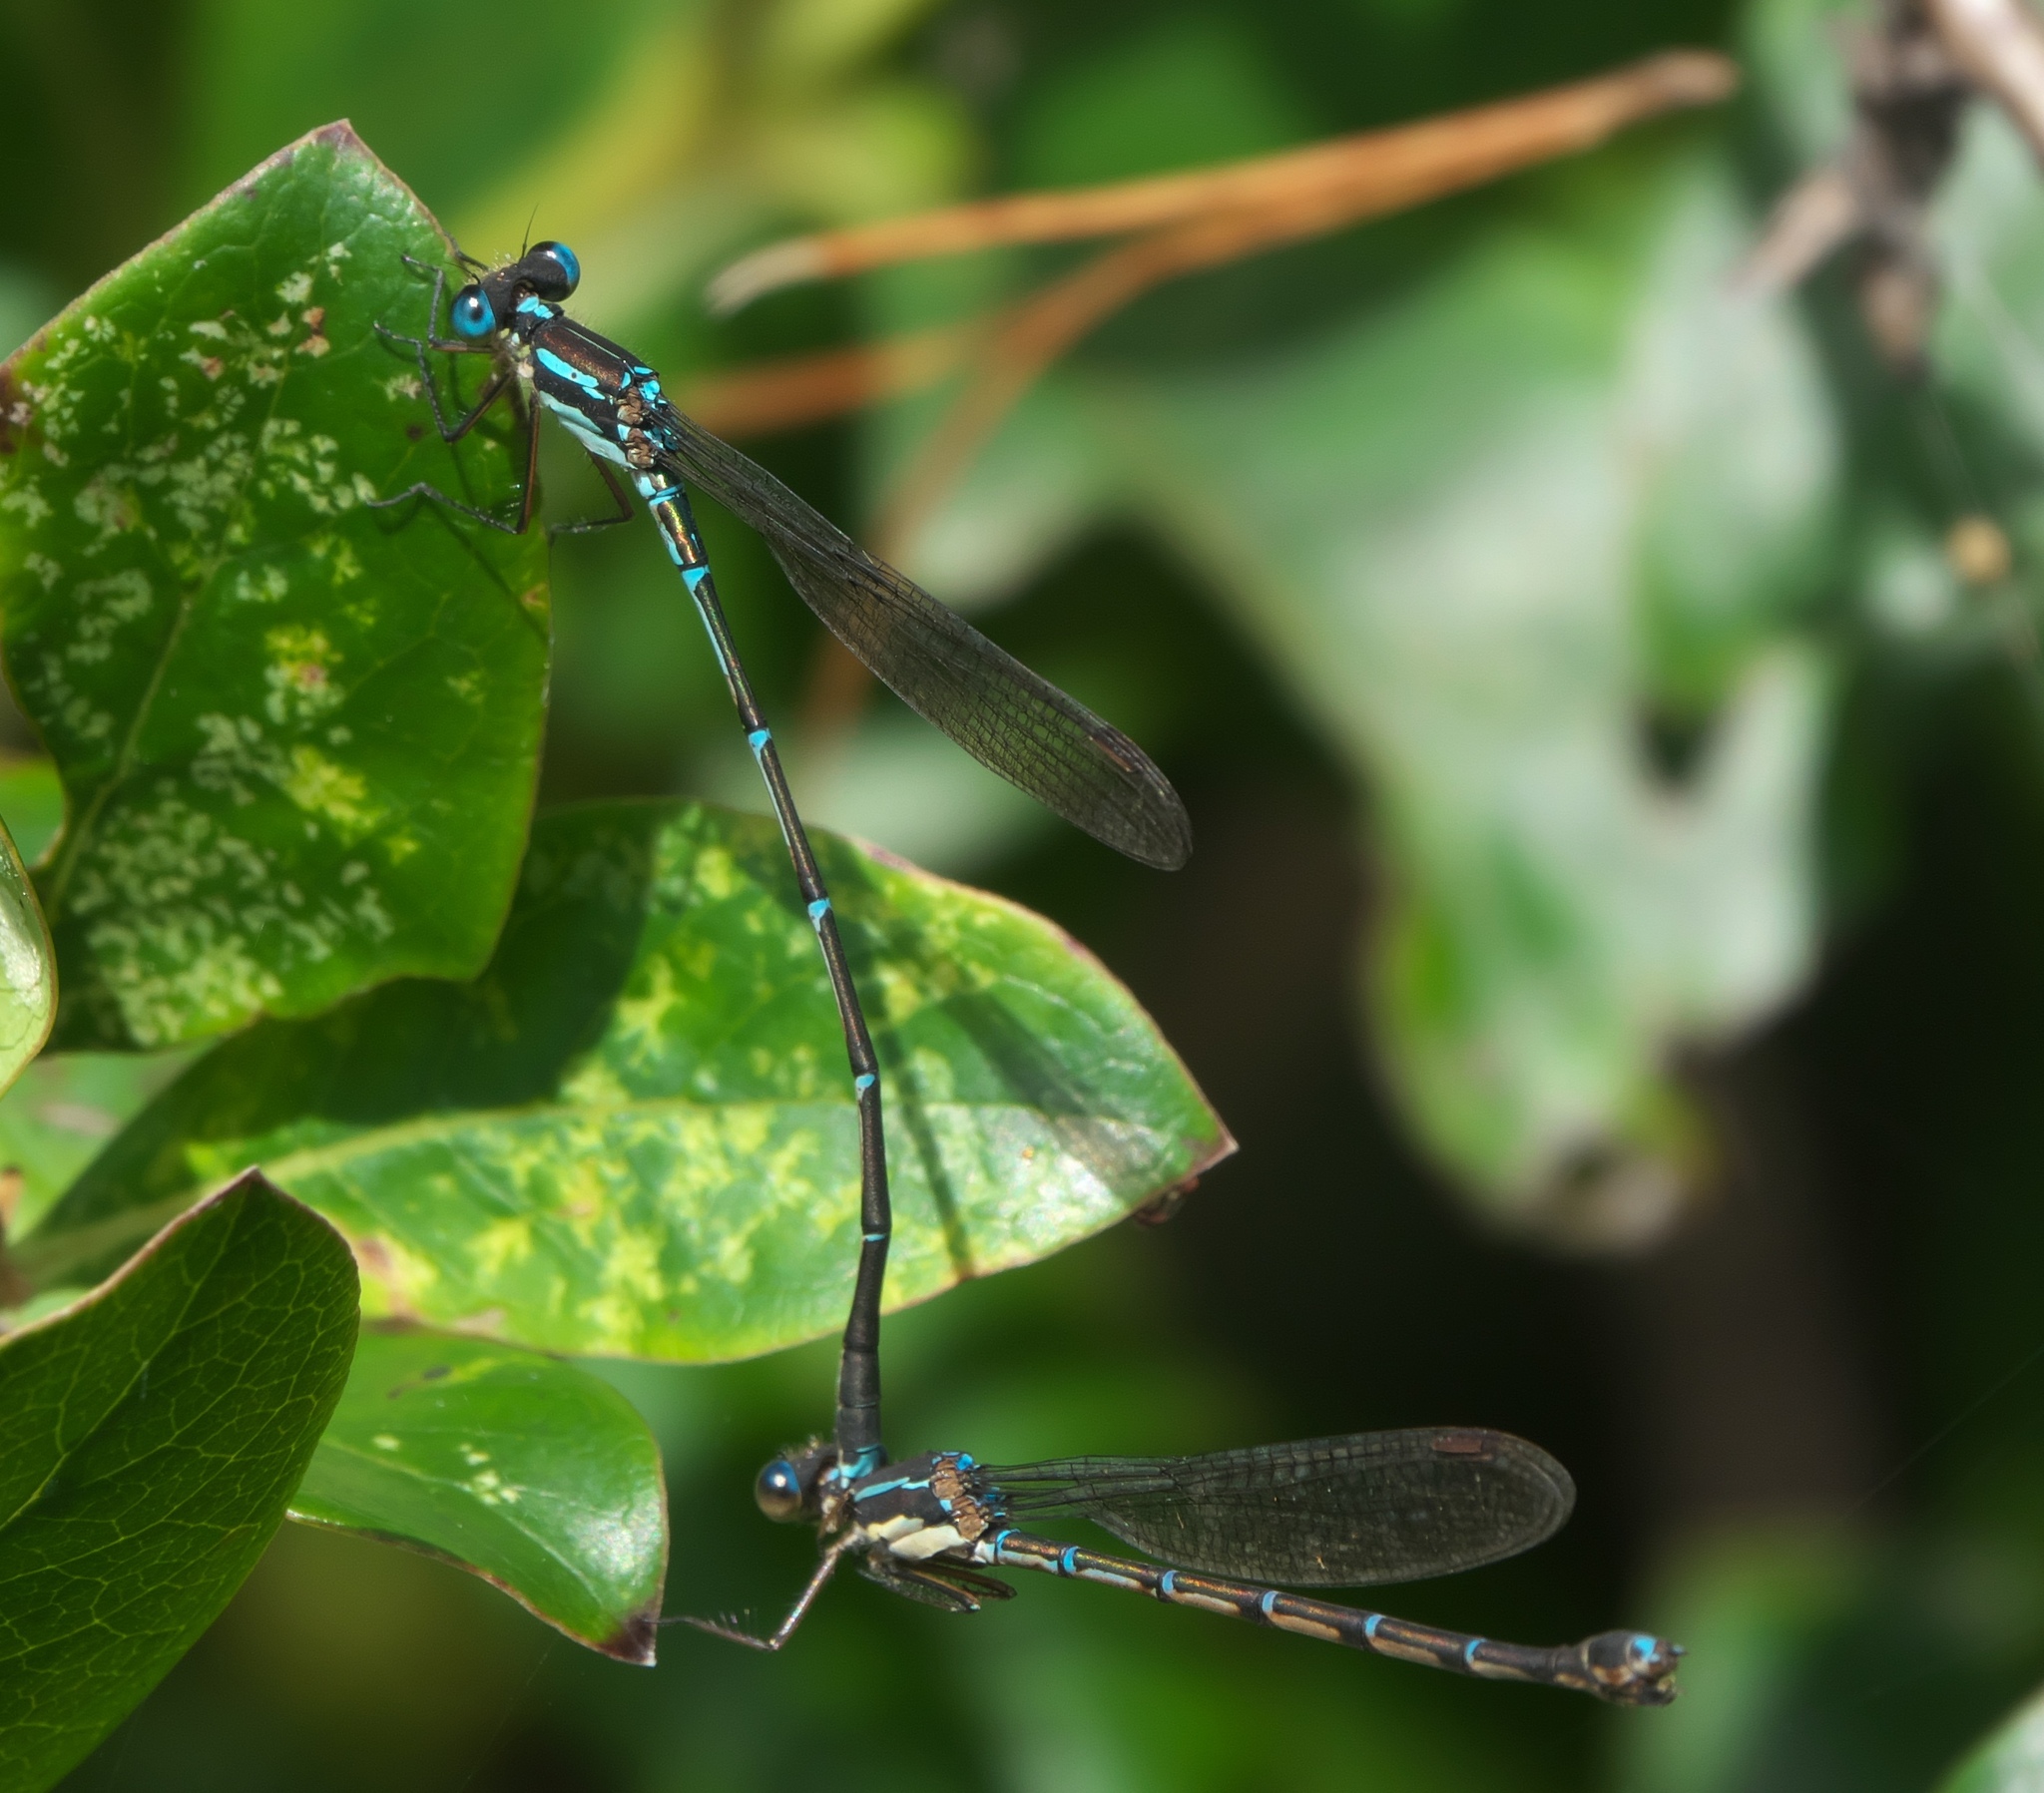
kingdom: Animalia
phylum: Arthropoda
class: Insecta
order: Odonata
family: Lestidae
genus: Austrolestes
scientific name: Austrolestes colensonis
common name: Blue damselfly
